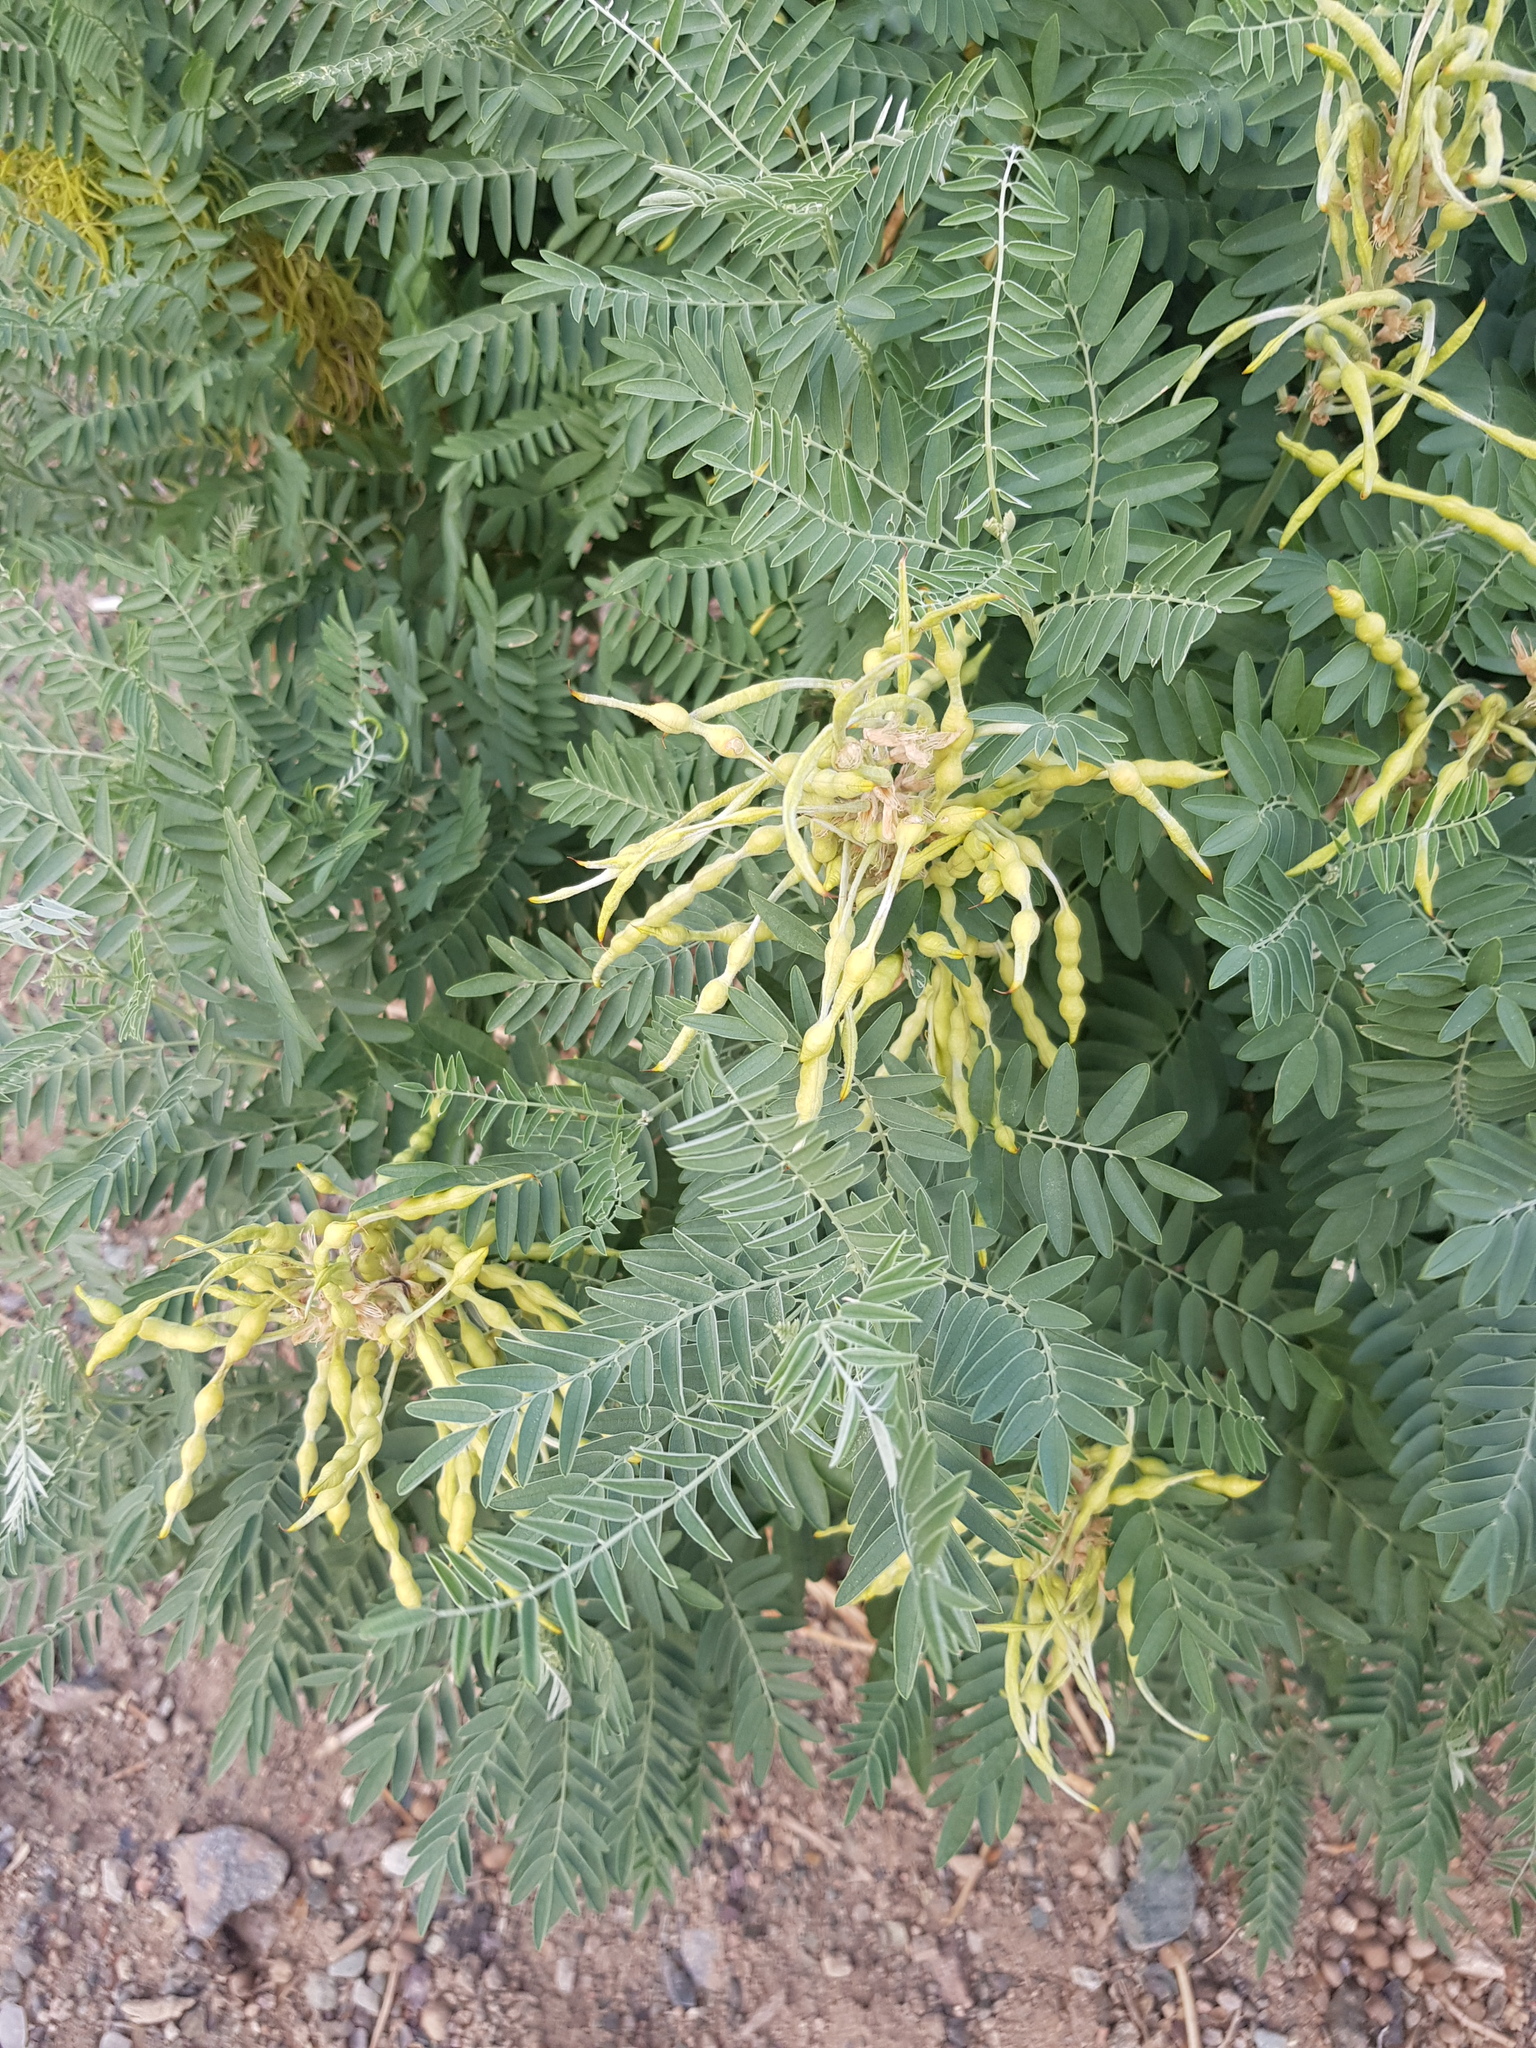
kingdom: Plantae
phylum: Tracheophyta
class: Magnoliopsida
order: Fabales
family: Fabaceae
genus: Sophora
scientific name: Sophora alopecuroides
